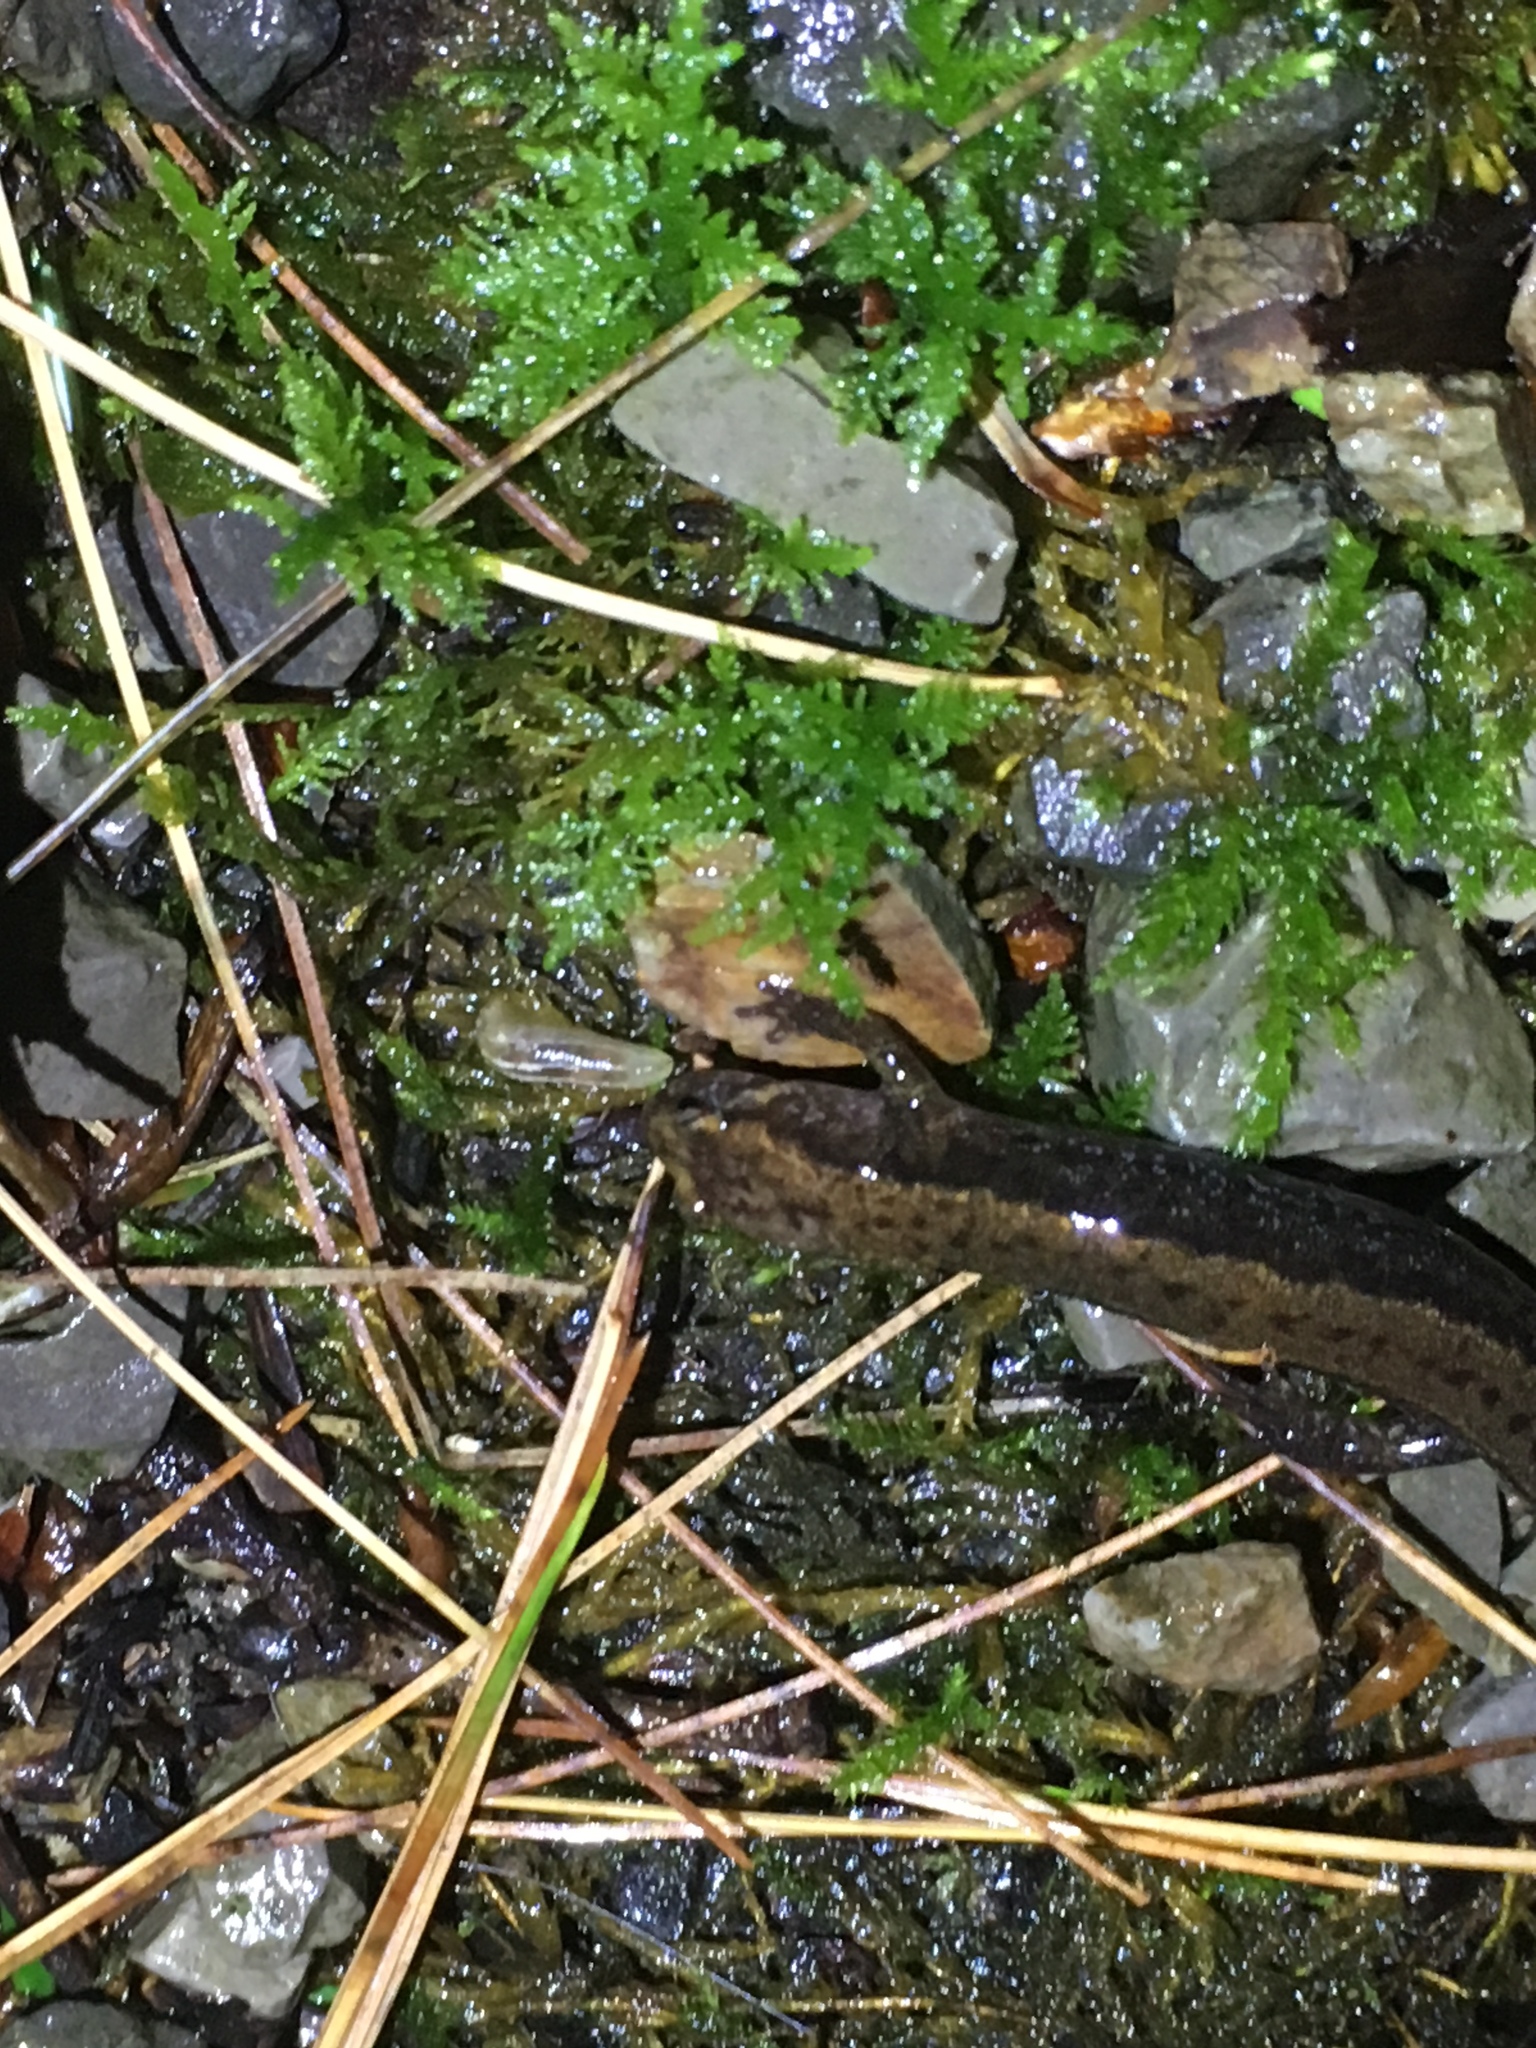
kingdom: Animalia
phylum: Chordata
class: Amphibia
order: Caudata
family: Plethodontidae
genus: Desmognathus
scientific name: Desmognathus ochrophaeus
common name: Allegheny mountain dusky salamander
